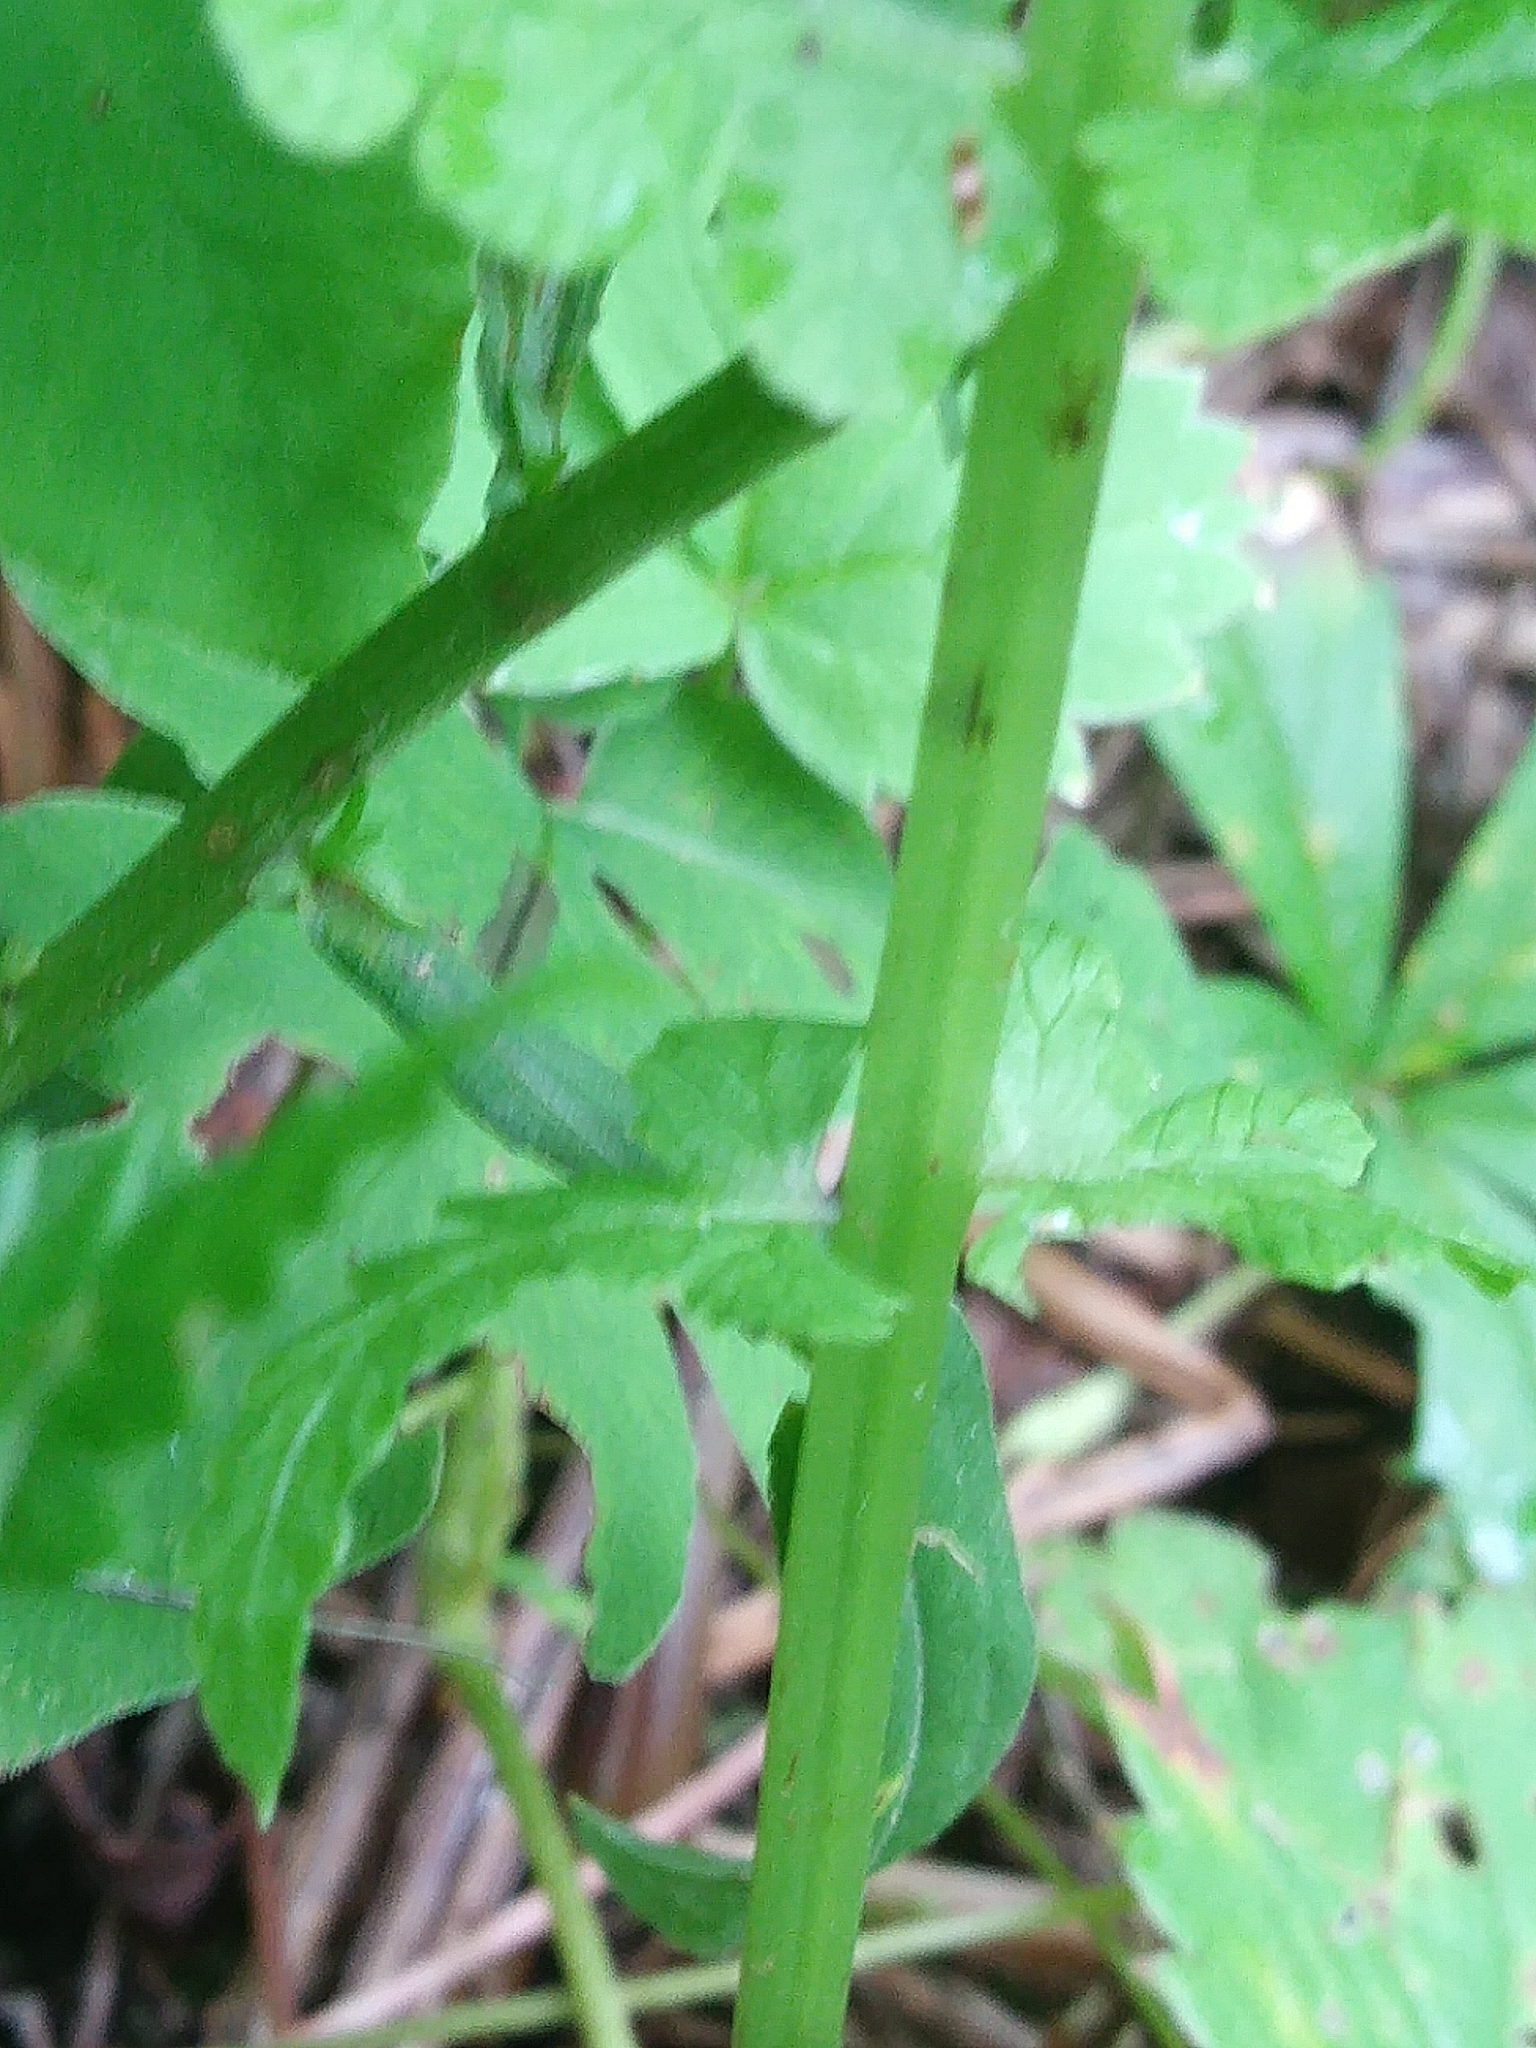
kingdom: Plantae
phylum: Tracheophyta
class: Polypodiopsida
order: Polypodiales
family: Thelypteridaceae
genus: Amauropelta
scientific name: Amauropelta noveboracensis
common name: New york fern
